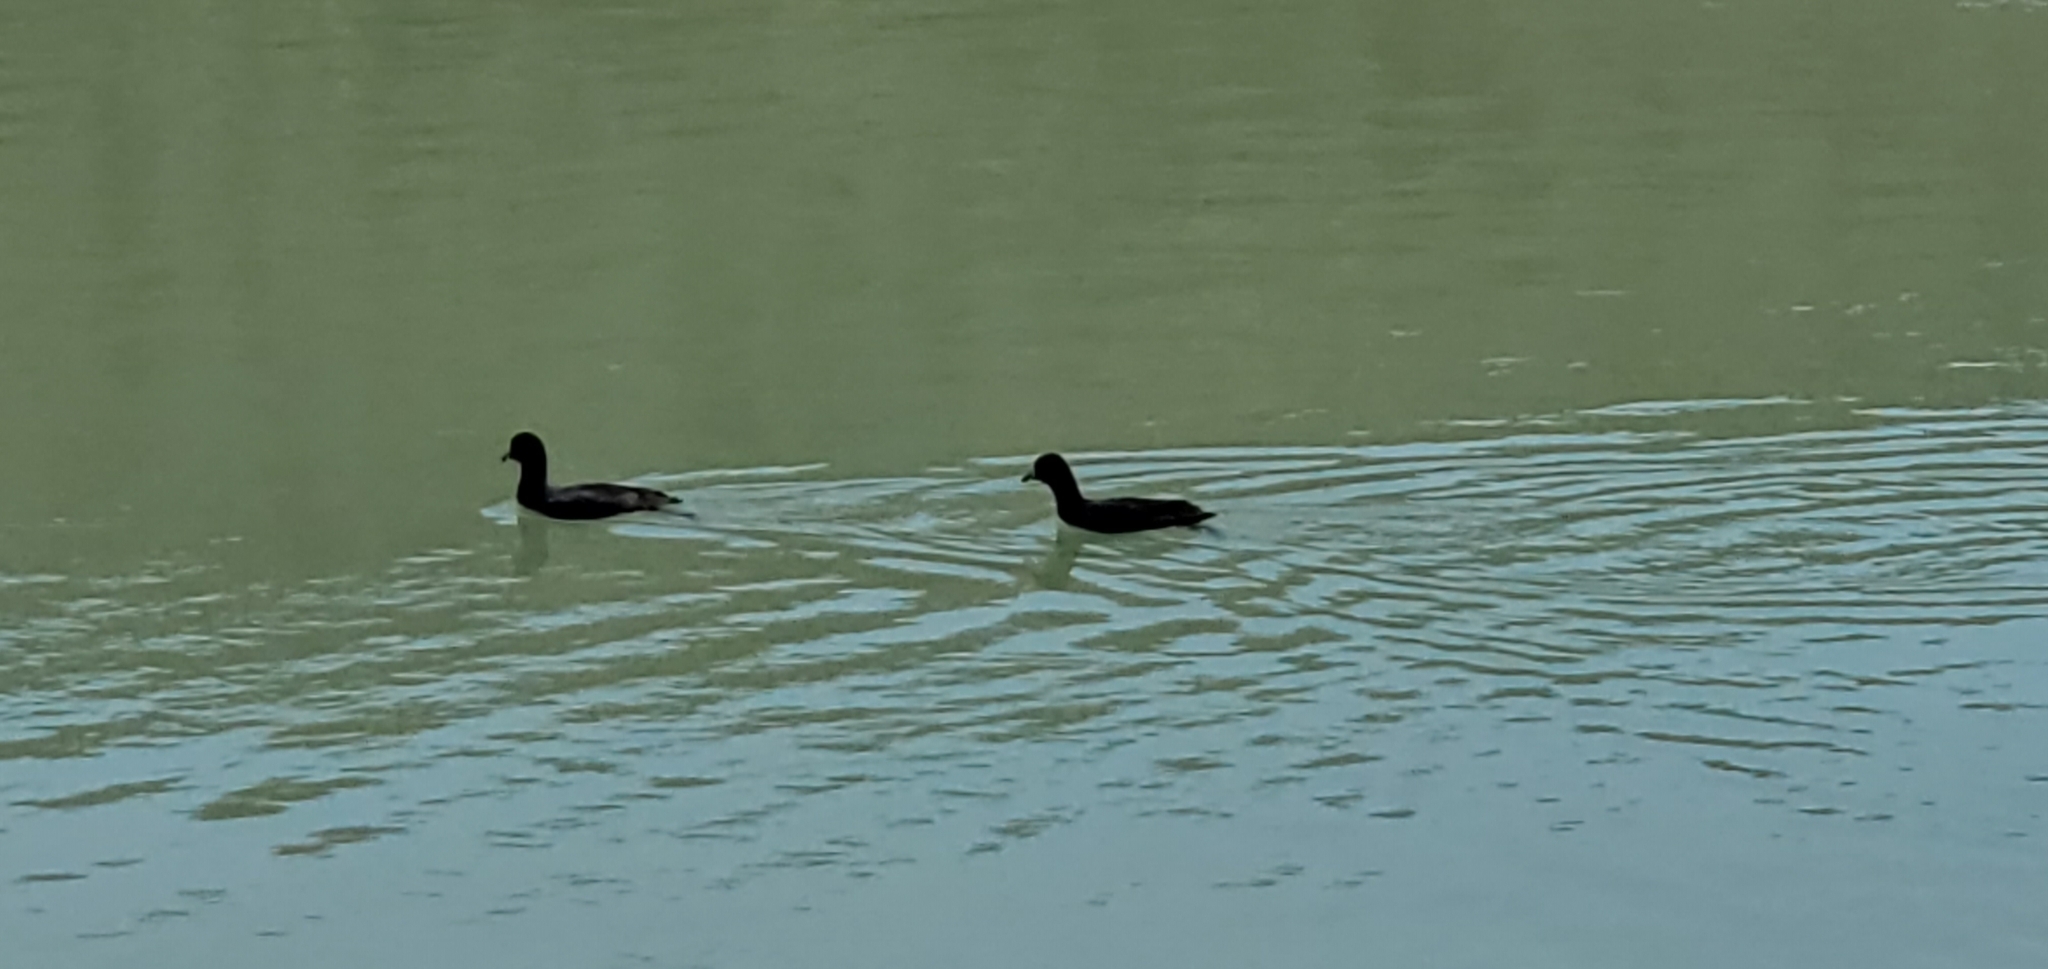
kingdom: Animalia
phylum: Chordata
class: Aves
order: Gruiformes
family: Rallidae
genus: Fulica
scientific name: Fulica americana
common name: American coot
